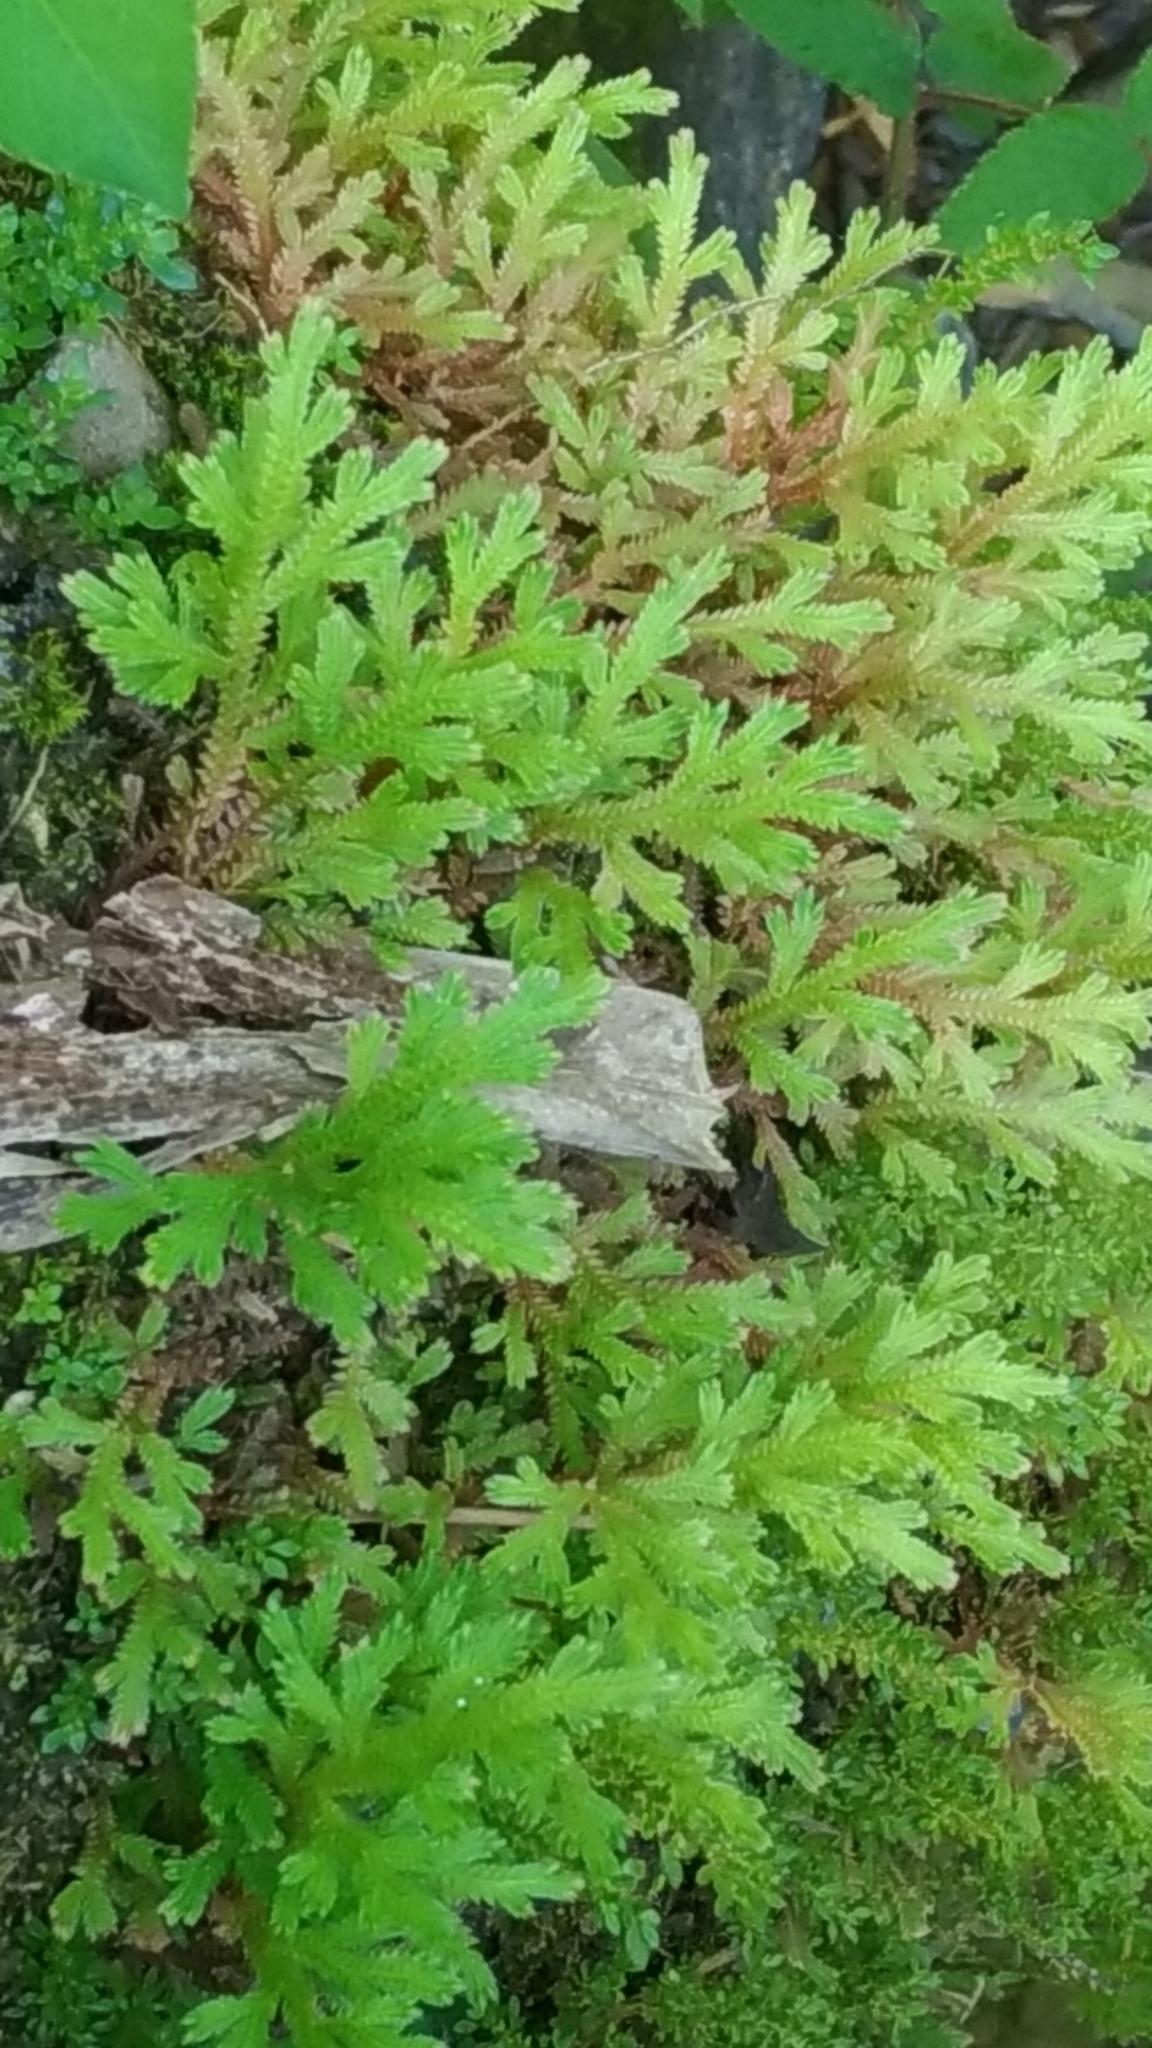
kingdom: Plantae
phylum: Tracheophyta
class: Lycopodiopsida
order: Selaginellales
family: Selaginellaceae
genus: Selaginella
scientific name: Selaginella repanda
